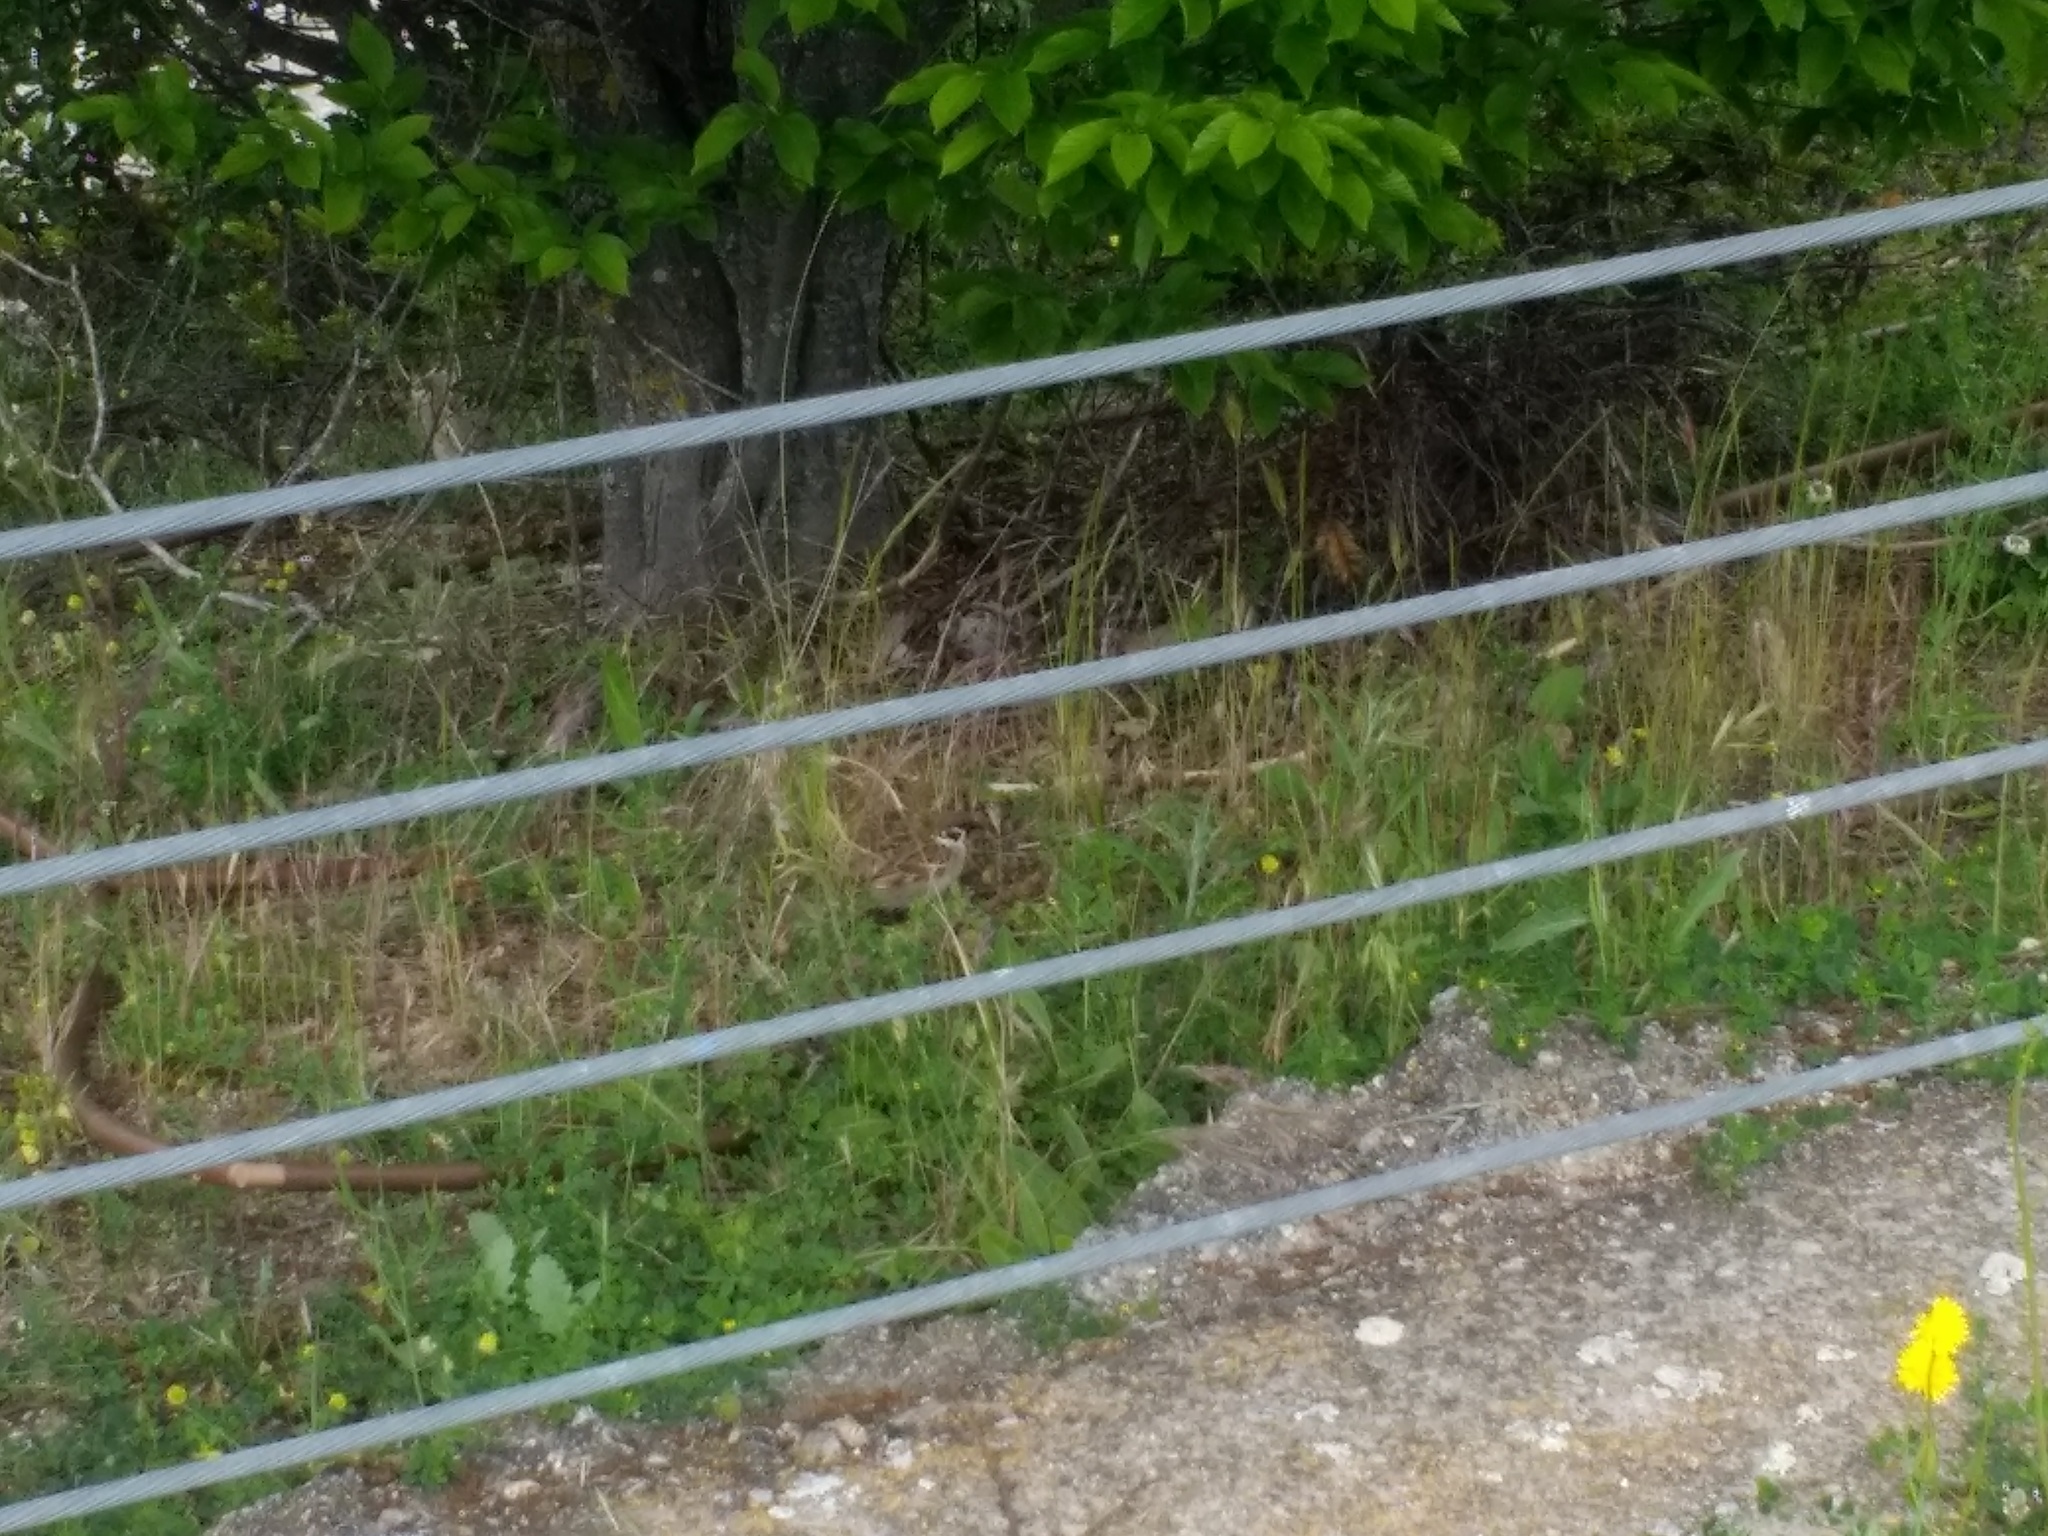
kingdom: Animalia
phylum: Chordata
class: Aves
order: Passeriformes
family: Passeridae
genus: Passer
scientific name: Passer montanus
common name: Eurasian tree sparrow
